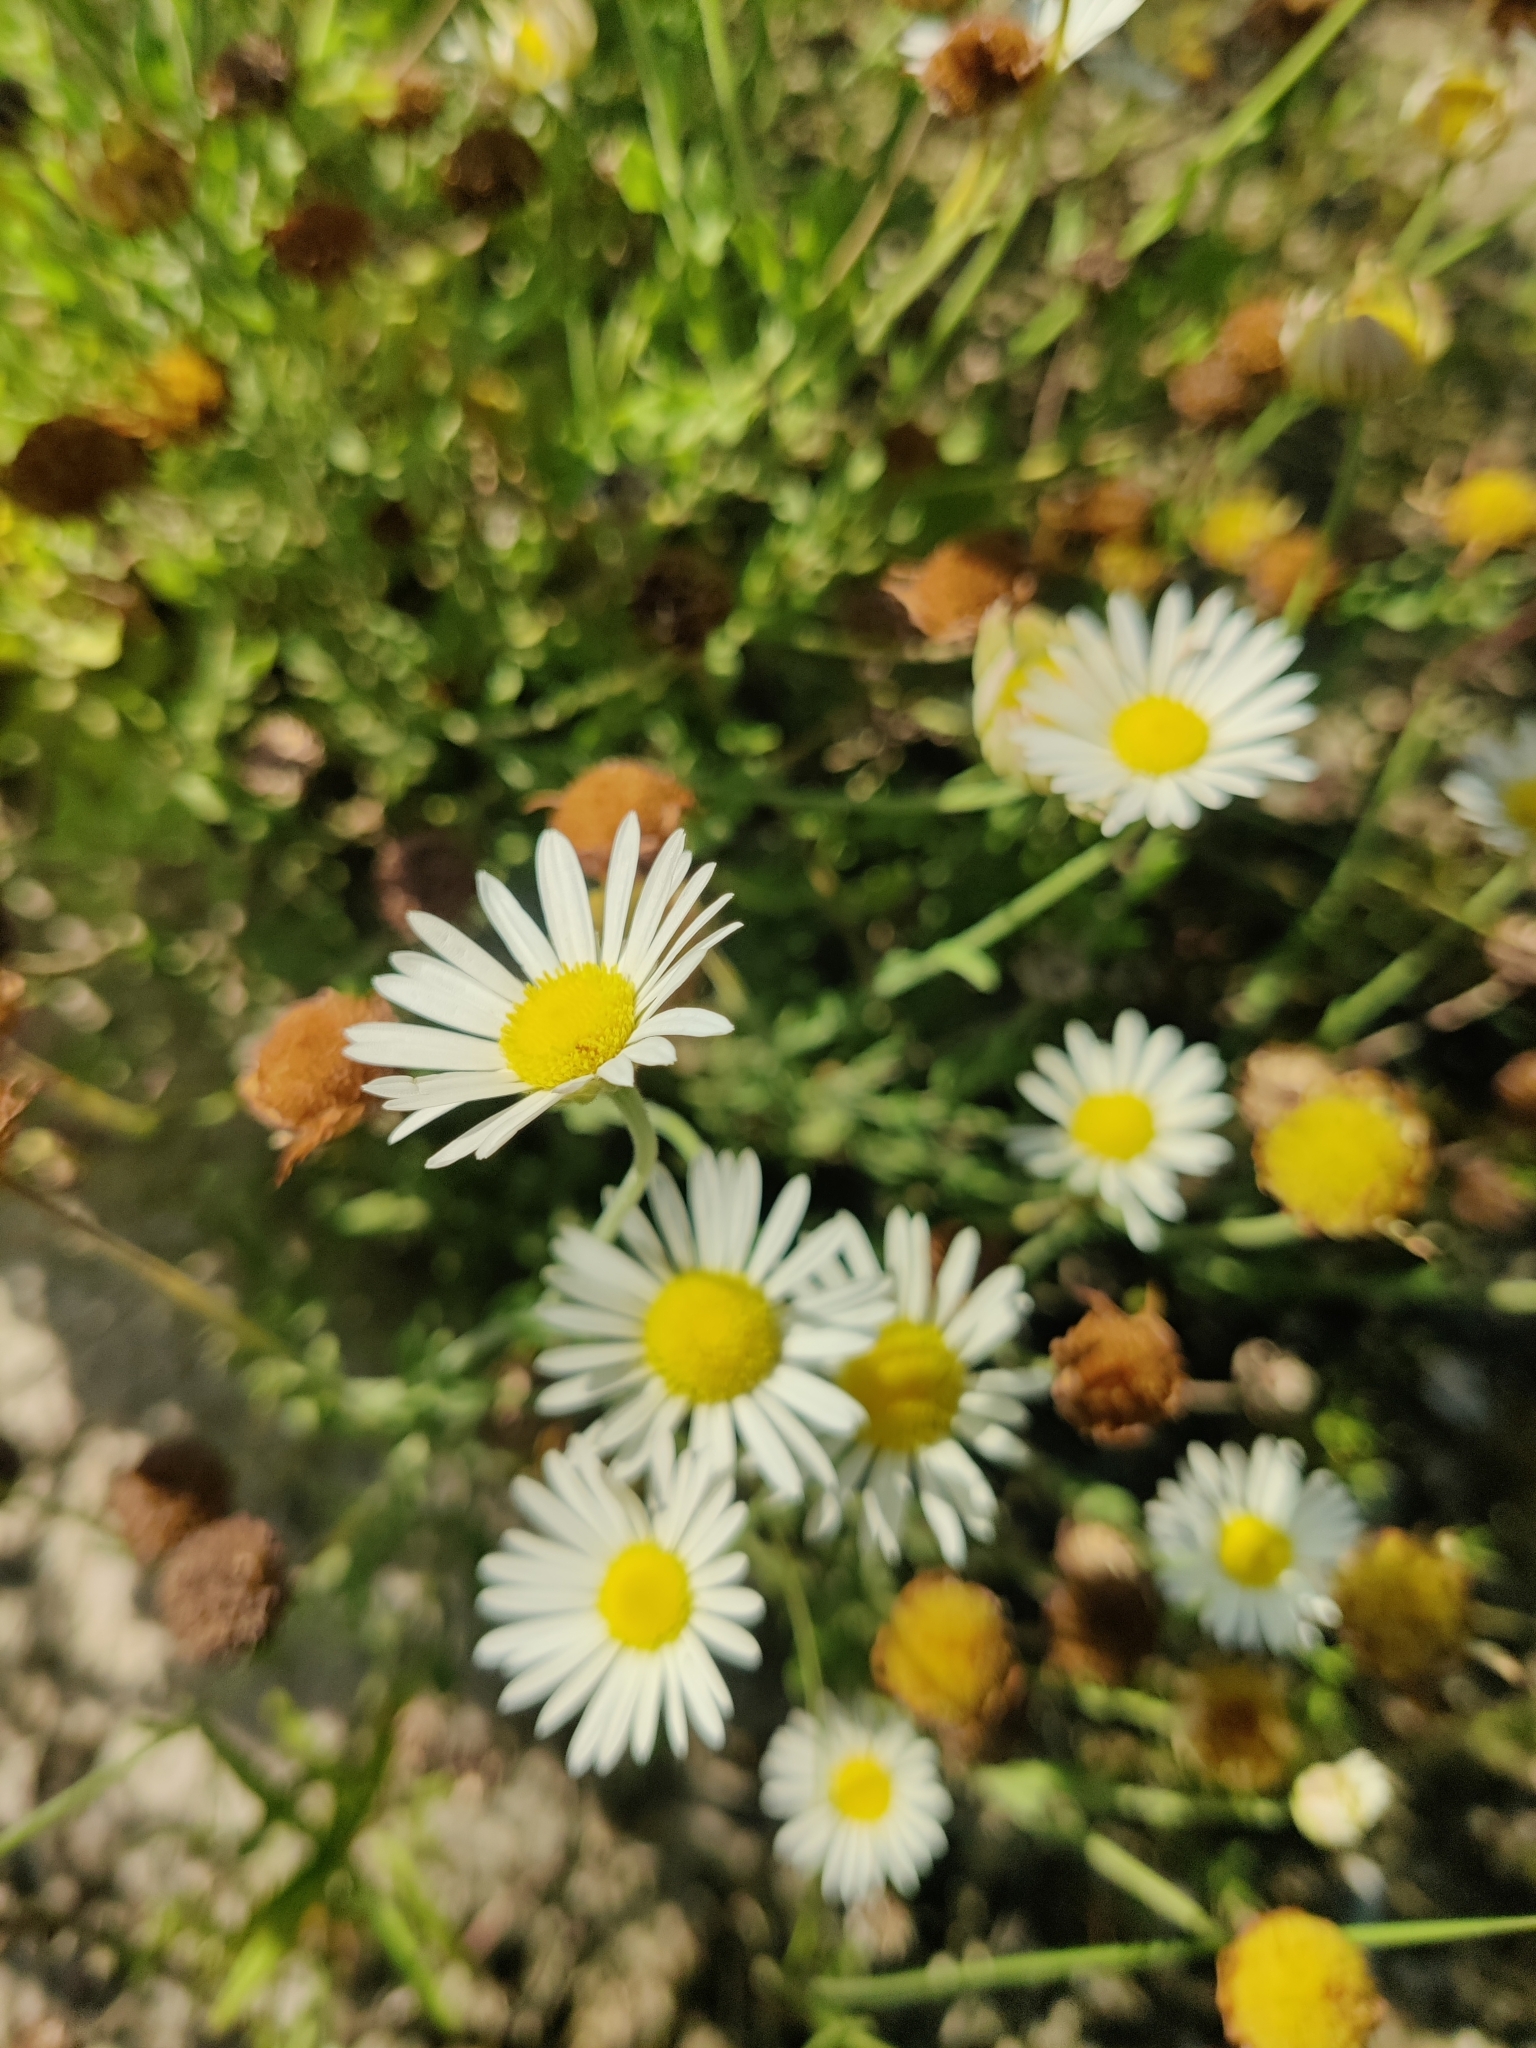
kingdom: Plantae
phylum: Tracheophyta
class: Magnoliopsida
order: Asterales
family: Asteraceae
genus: Aphanostephus
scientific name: Aphanostephus skirrhobasis
